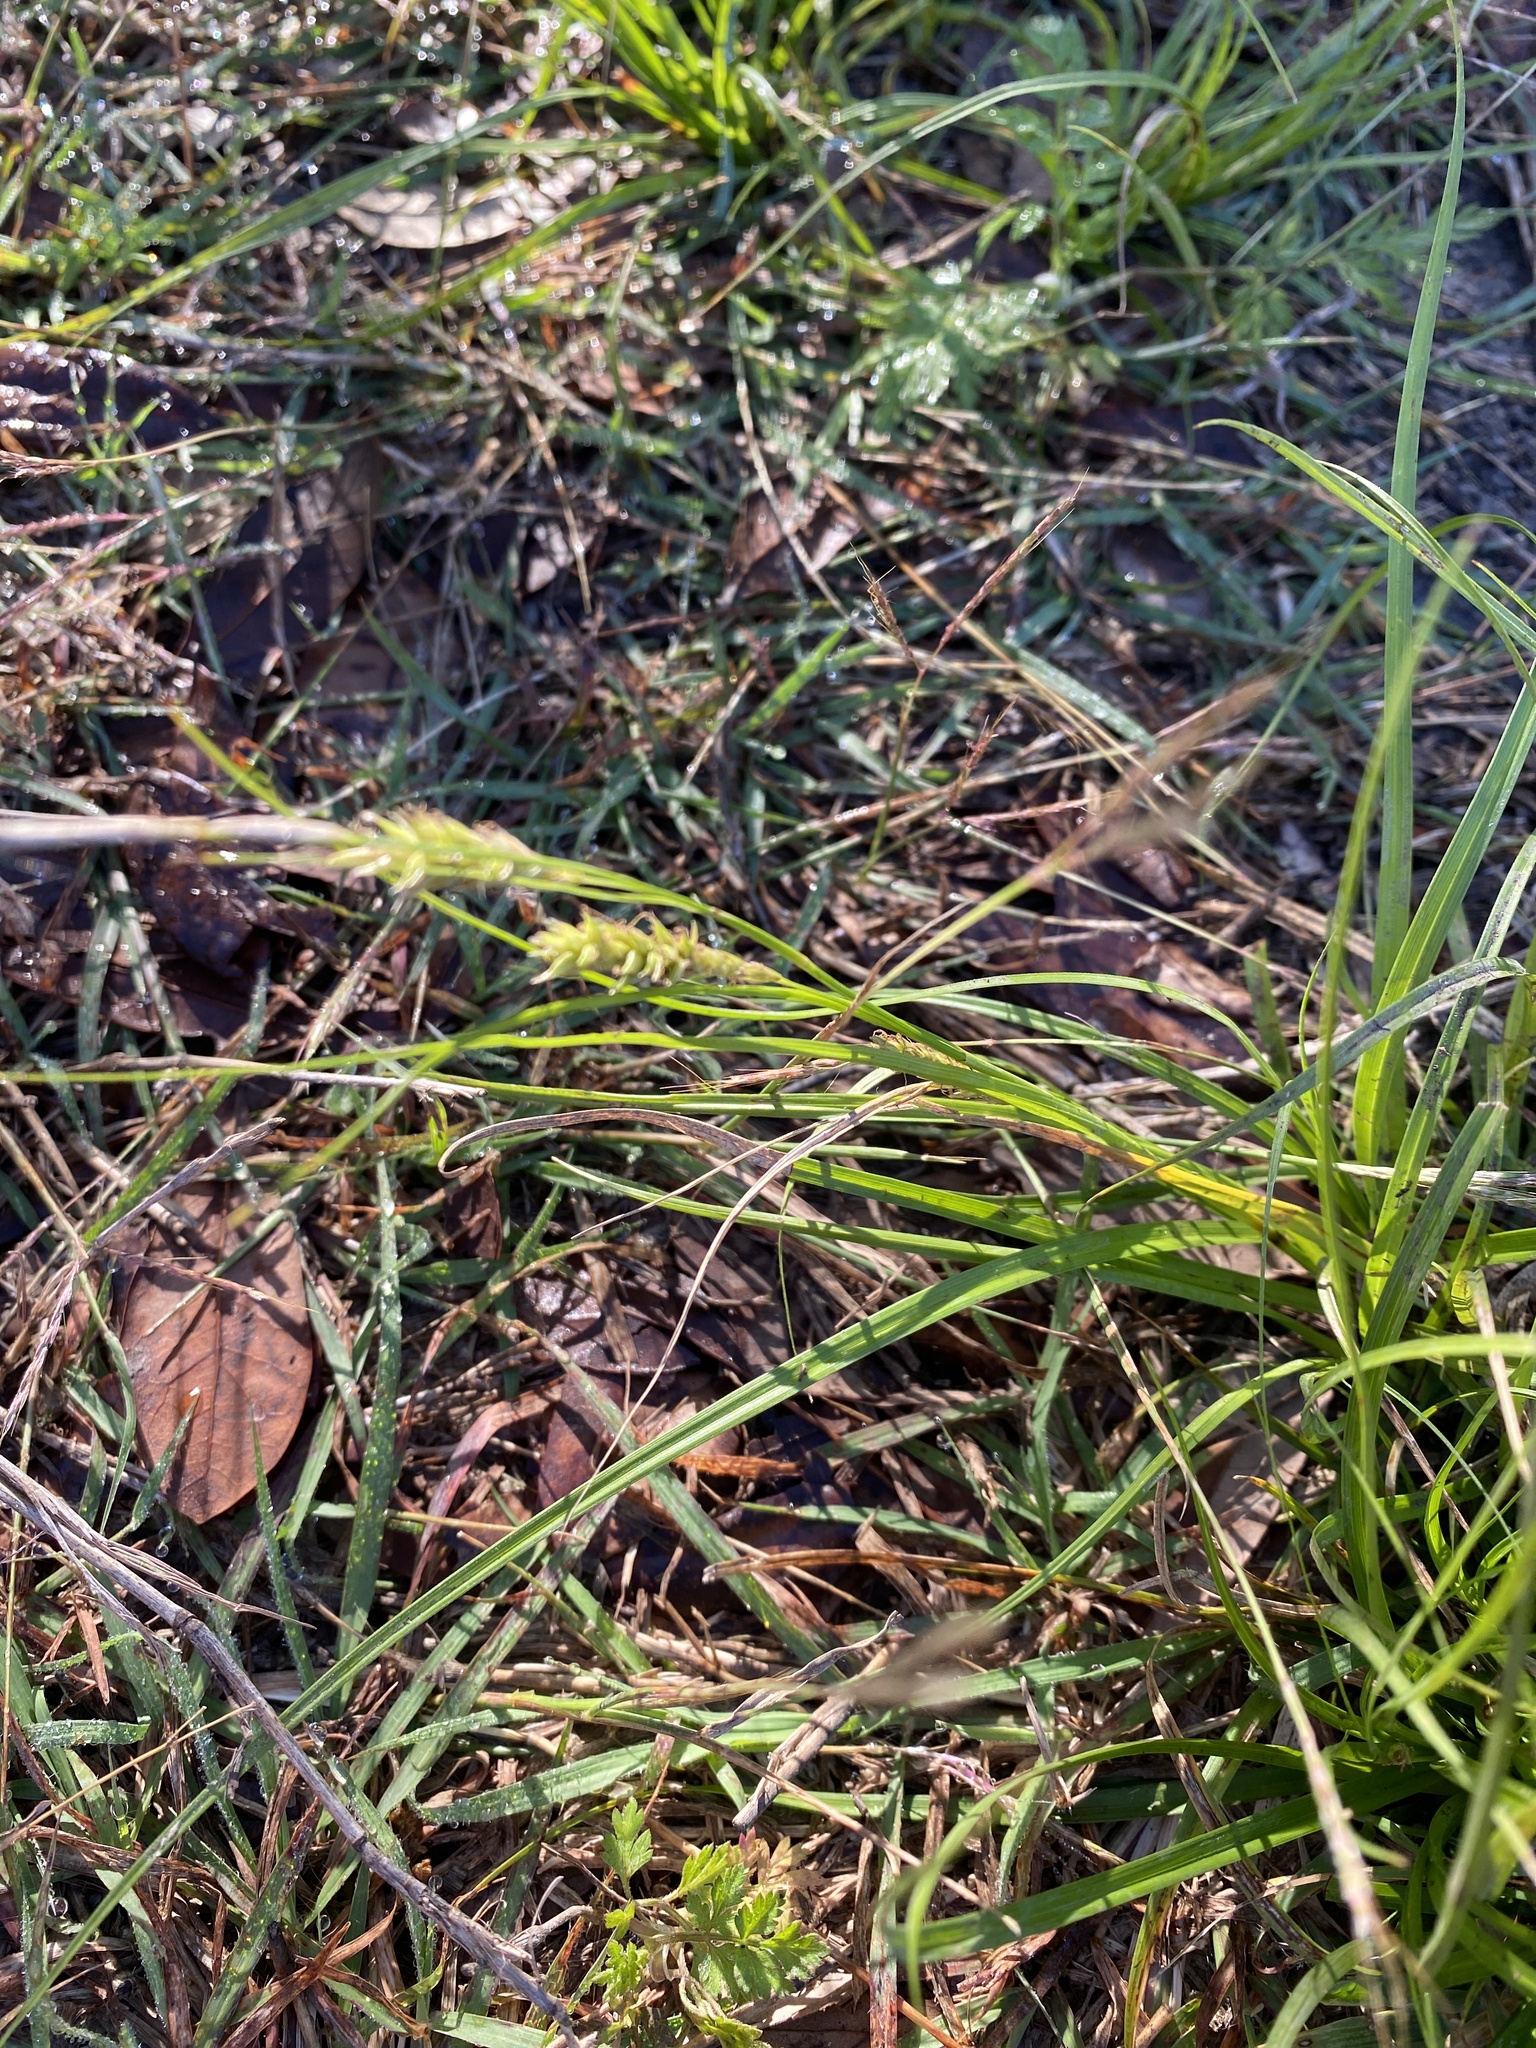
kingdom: Plantae
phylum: Tracheophyta
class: Liliopsida
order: Poales
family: Cyperaceae
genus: Carex
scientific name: Carex cherokeensis
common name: Cherokee sedge
